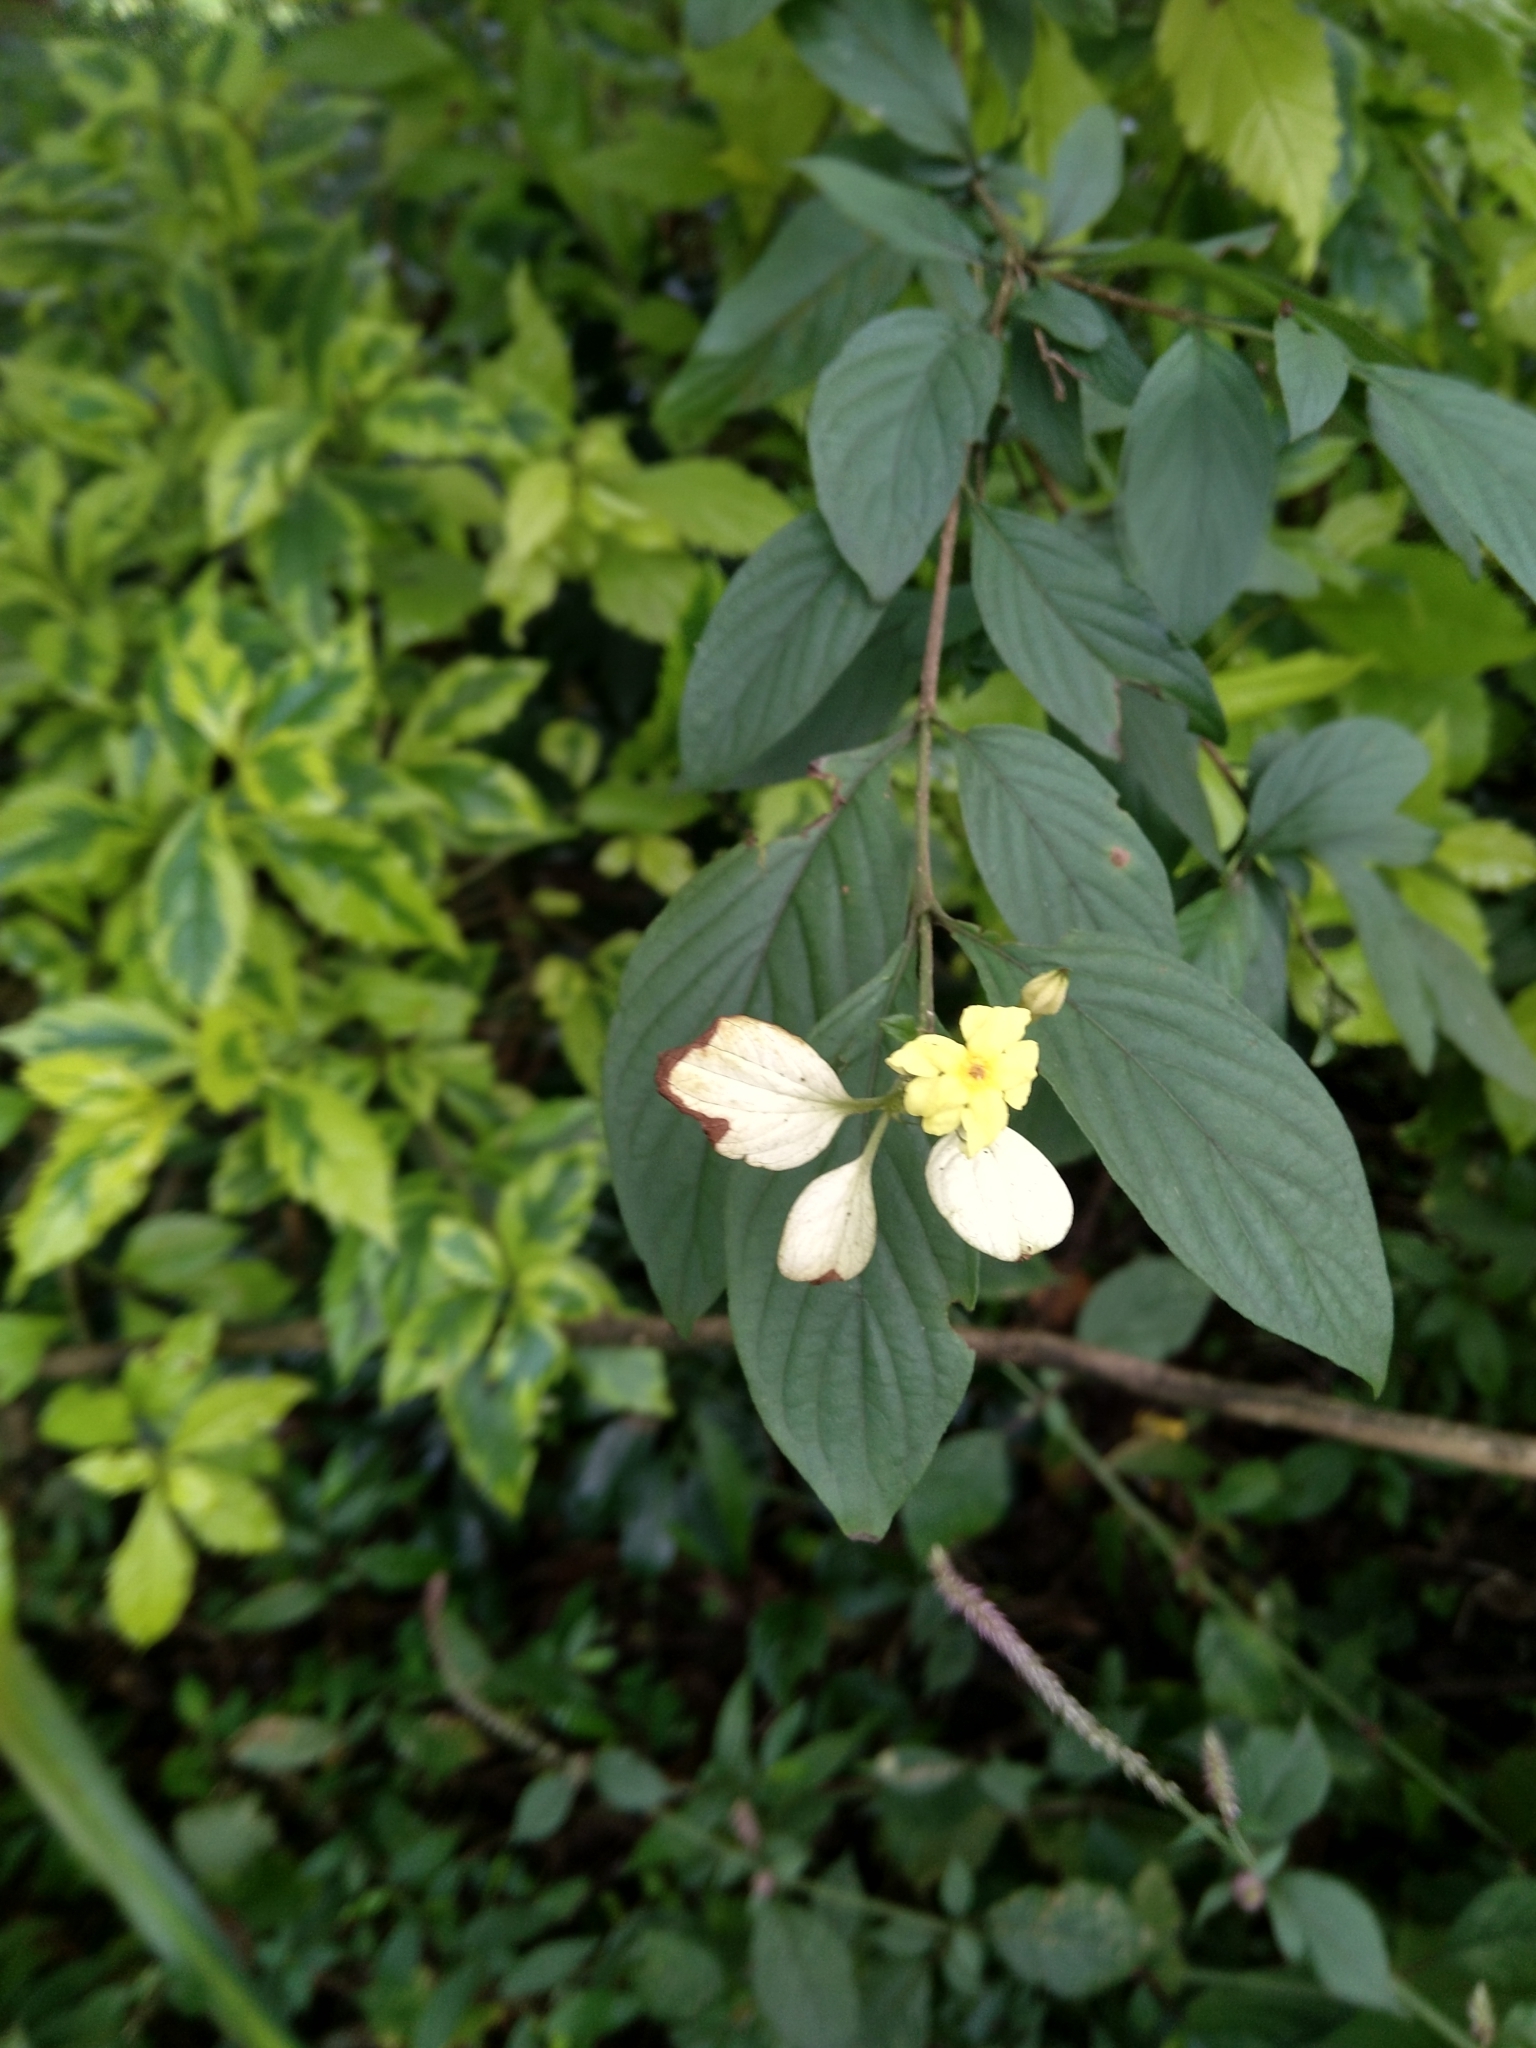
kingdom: Plantae
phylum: Tracheophyta
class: Magnoliopsida
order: Gentianales
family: Rubiaceae
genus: Pseudomussaenda
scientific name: Pseudomussaenda flava
